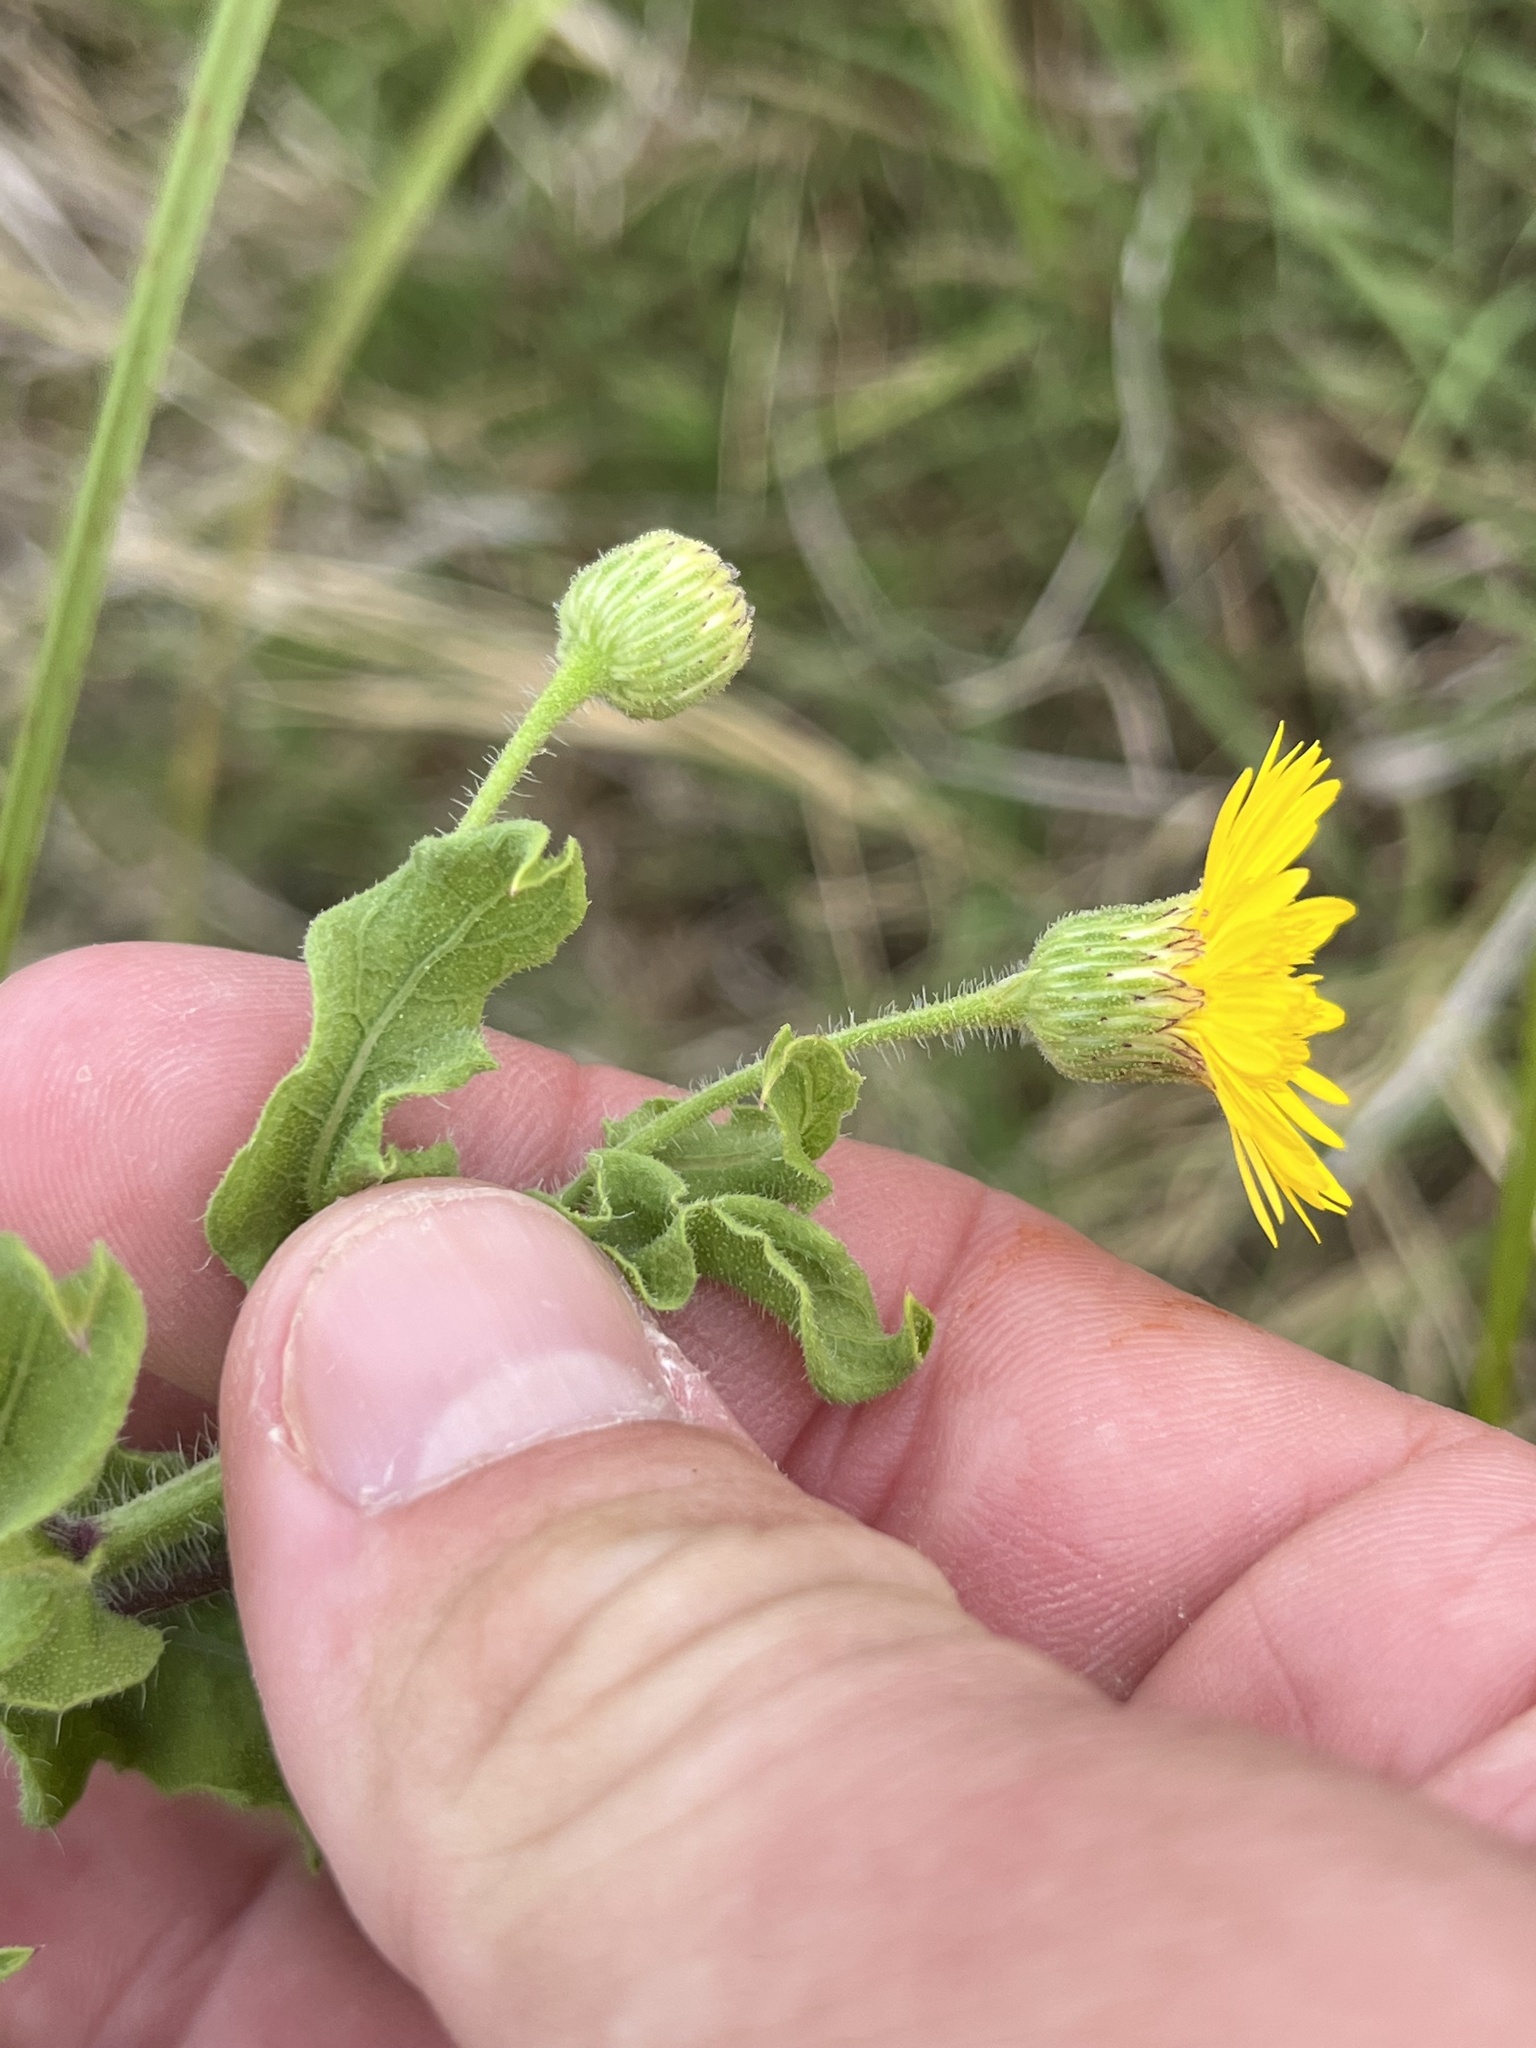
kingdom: Plantae
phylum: Tracheophyta
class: Magnoliopsida
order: Asterales
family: Asteraceae
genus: Heterotheca
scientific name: Heterotheca subaxillaris
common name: Camphorweed
